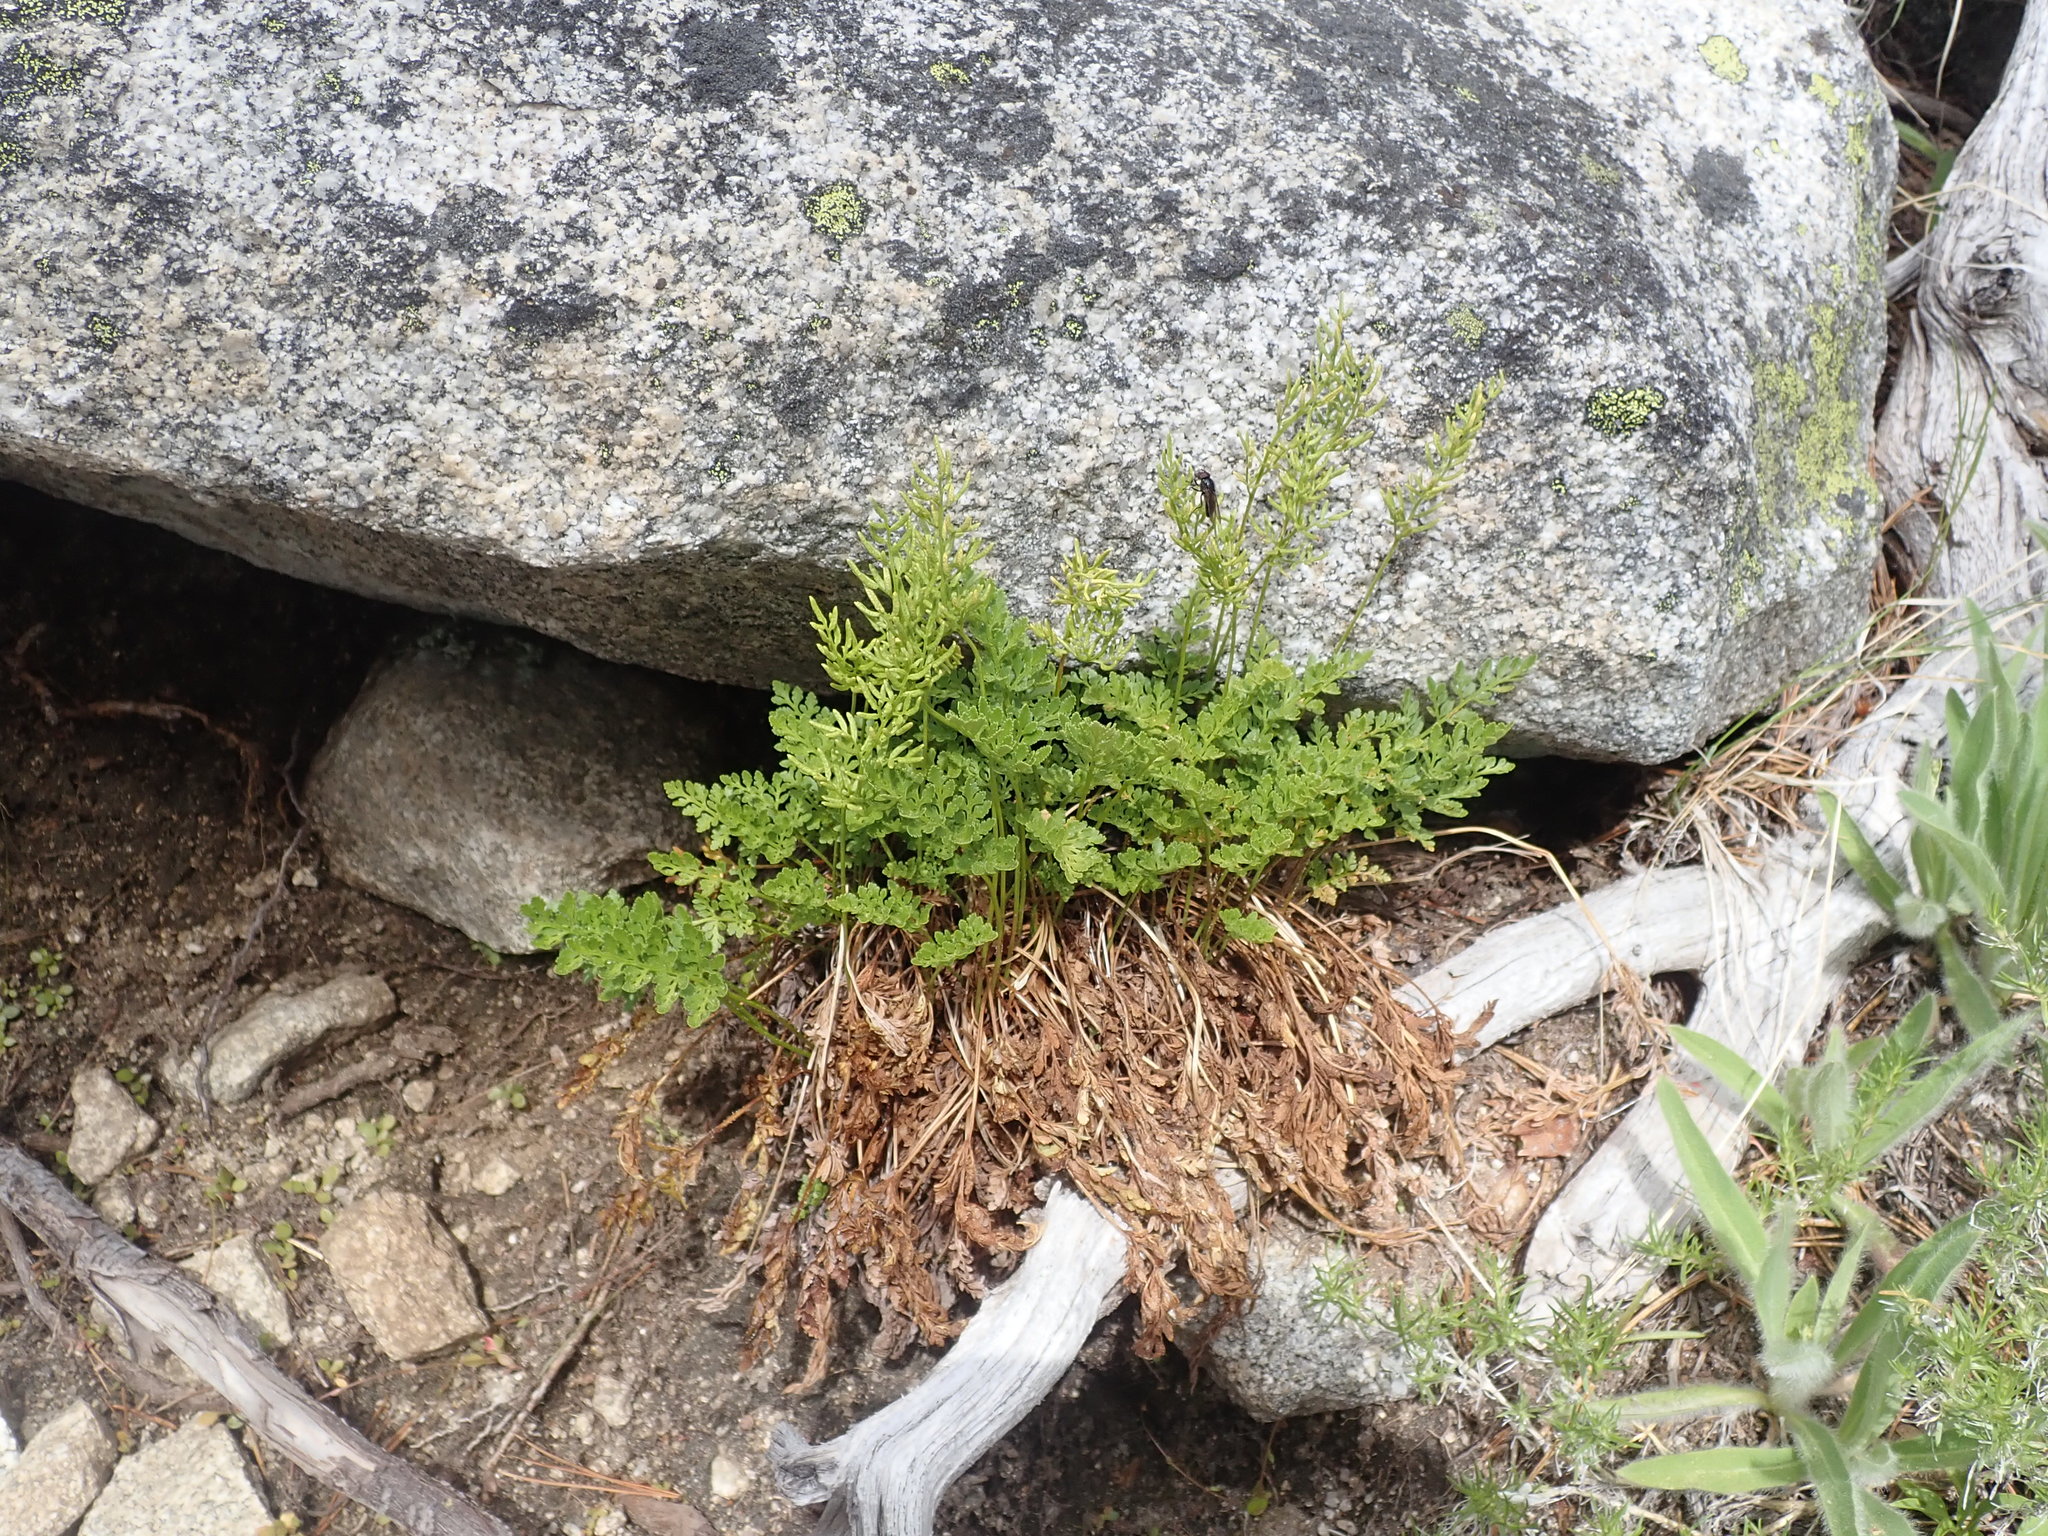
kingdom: Plantae
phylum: Tracheophyta
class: Polypodiopsida
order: Polypodiales
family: Pteridaceae
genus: Cryptogramma
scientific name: Cryptogramma acrostichoides
